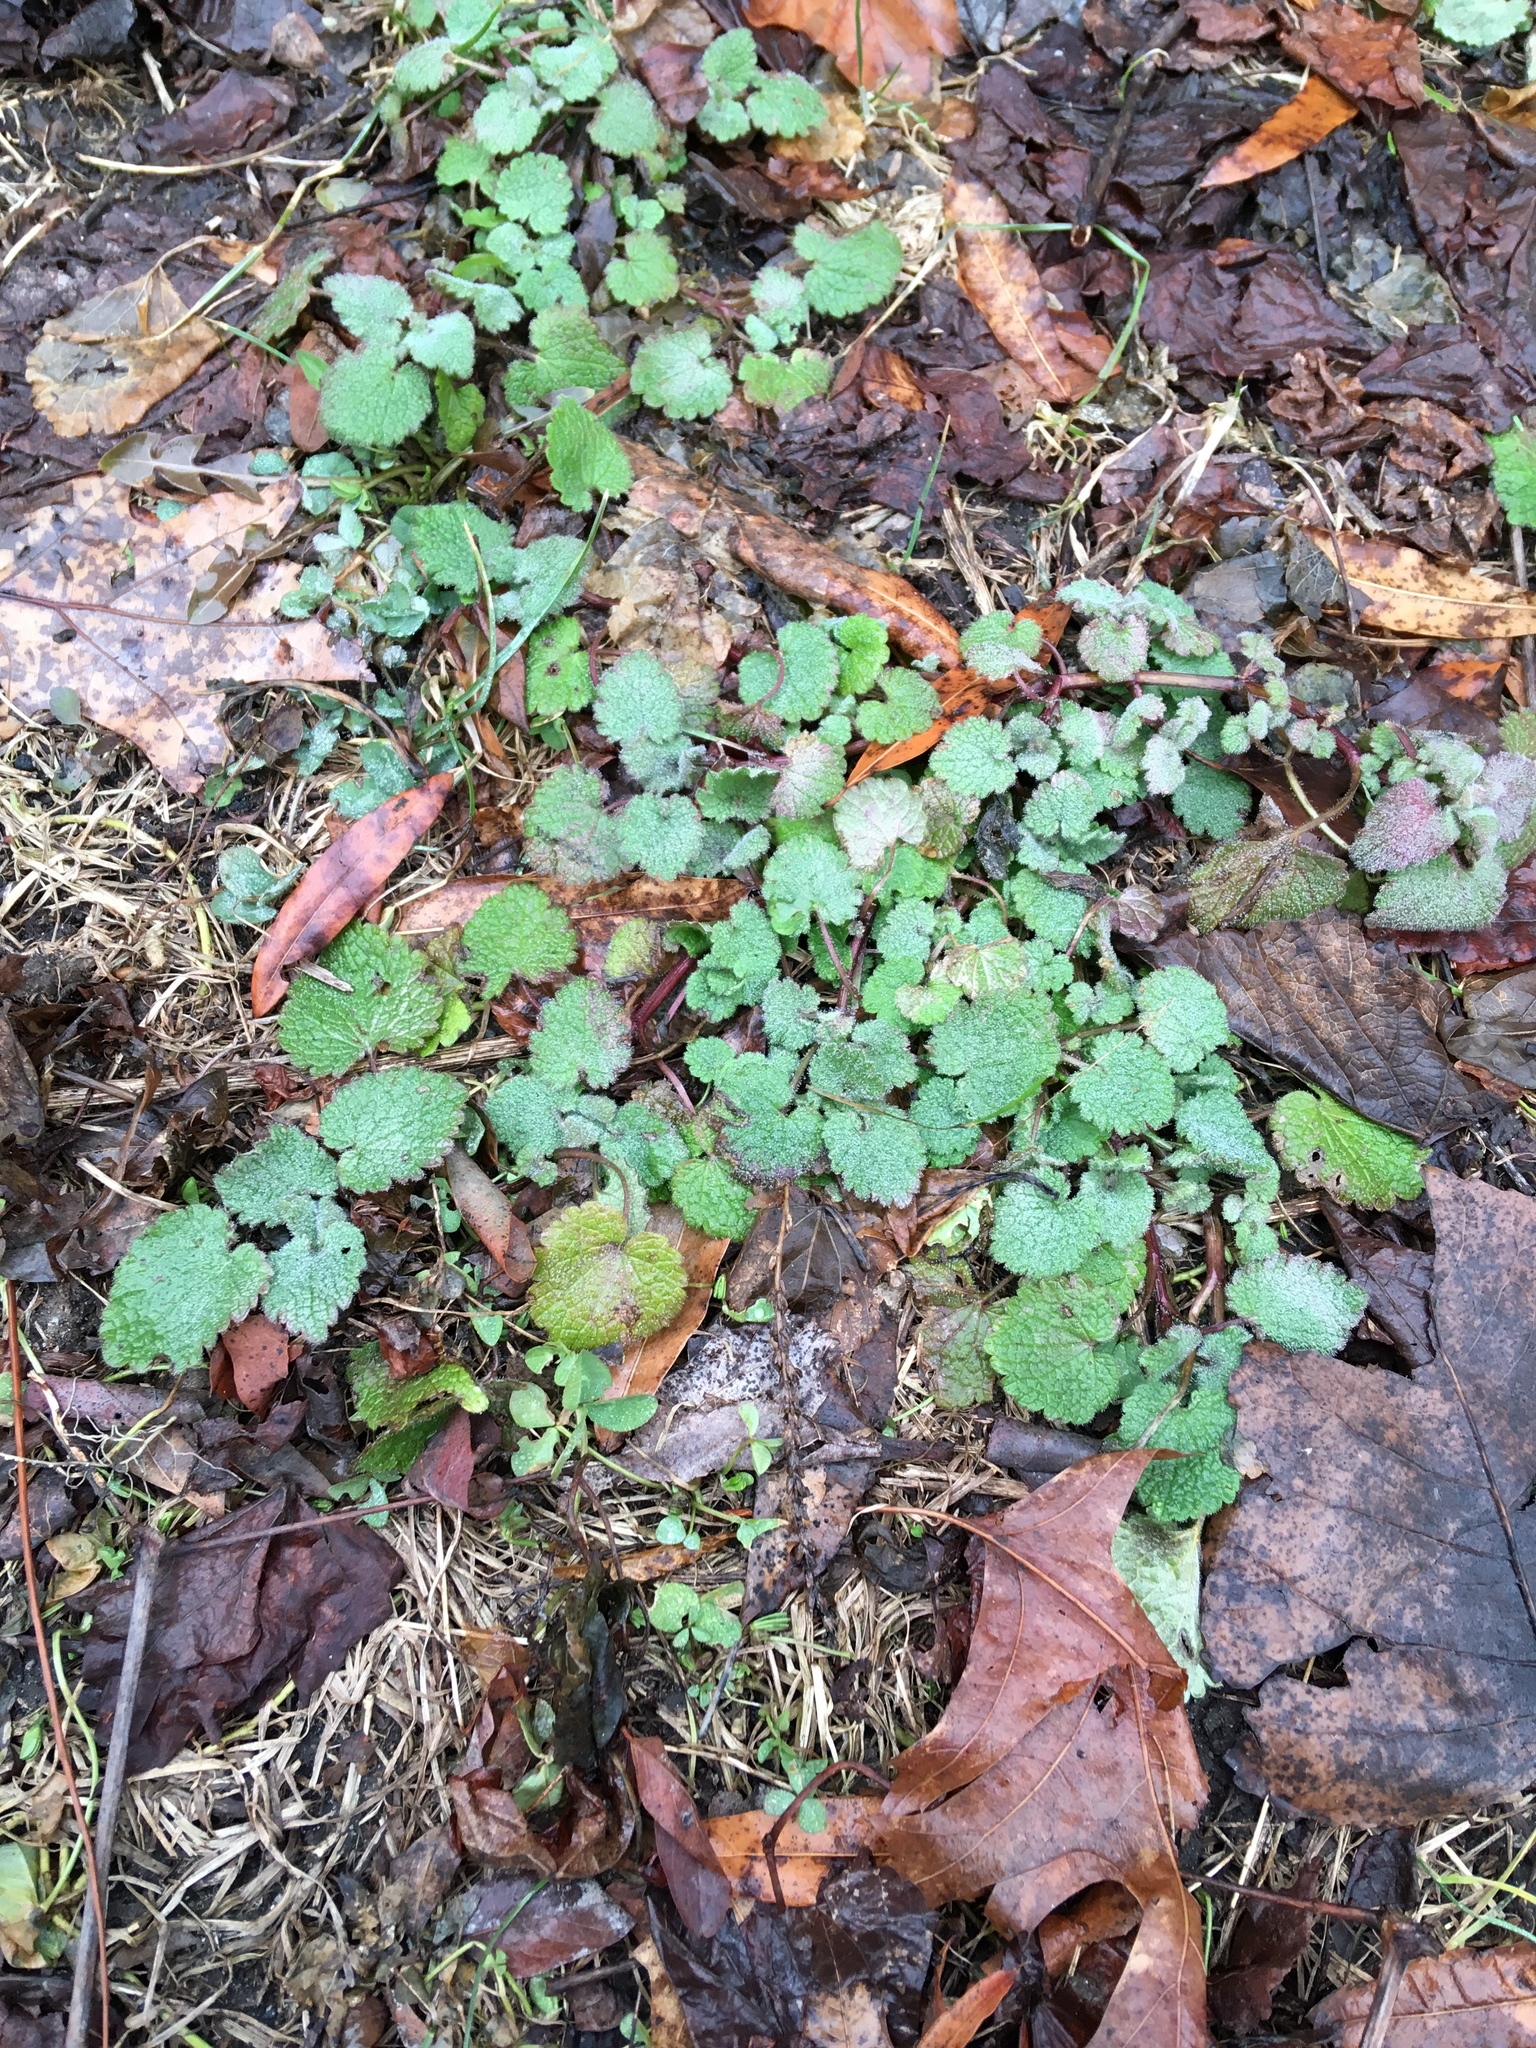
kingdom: Plantae
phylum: Tracheophyta
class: Magnoliopsida
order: Lamiales
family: Lamiaceae
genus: Lamium
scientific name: Lamium purpureum
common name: Red dead-nettle
